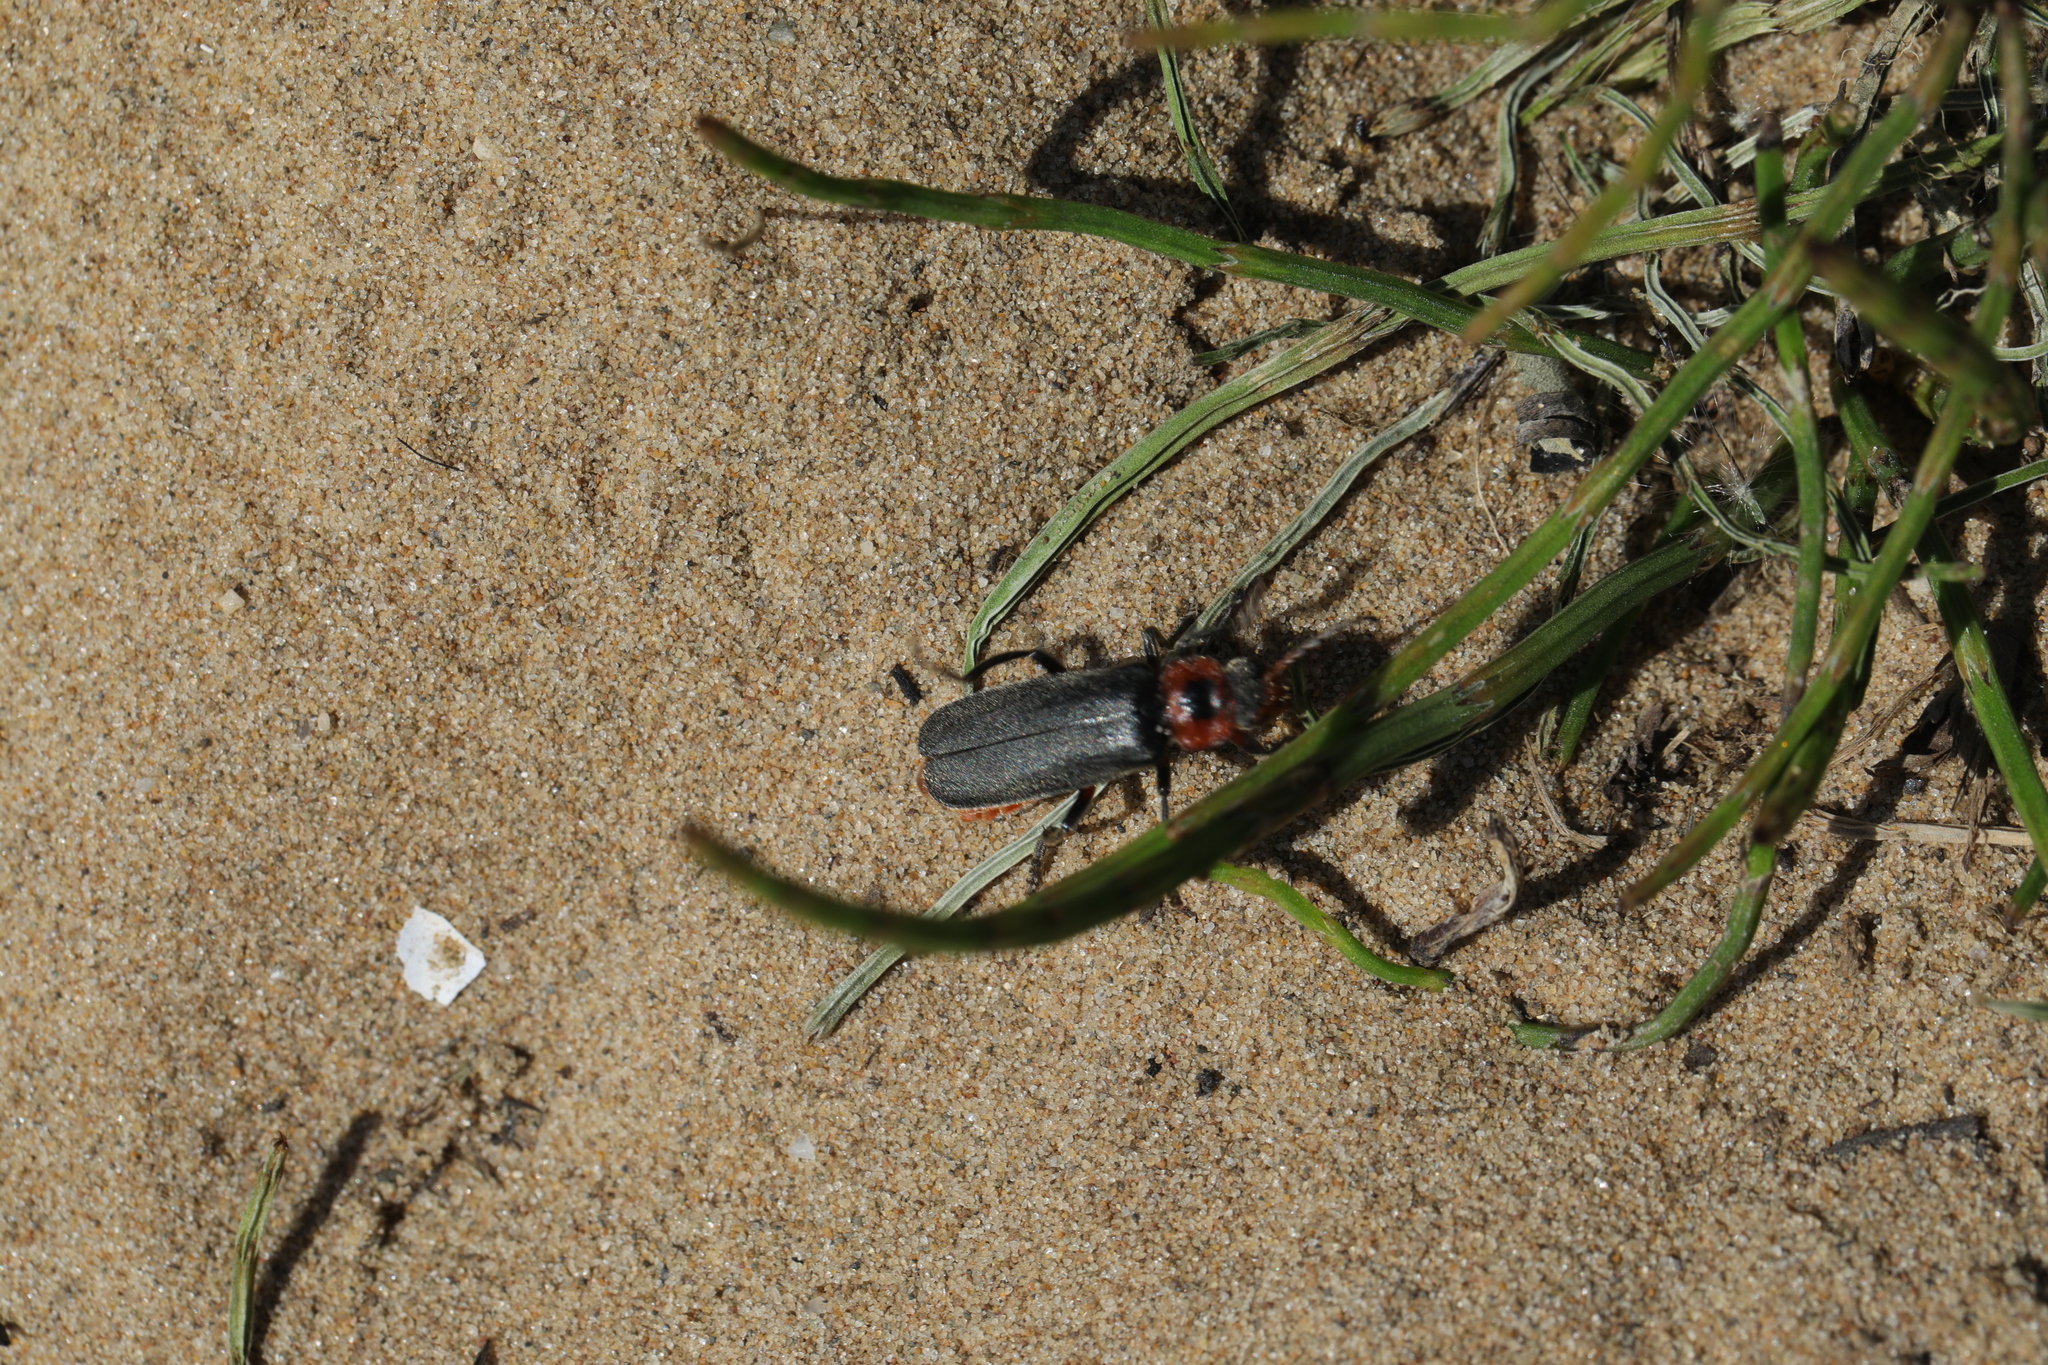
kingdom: Animalia
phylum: Arthropoda
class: Insecta
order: Coleoptera
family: Cantharidae
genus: Cantharis
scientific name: Cantharis rustica
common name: Soldier beetle
